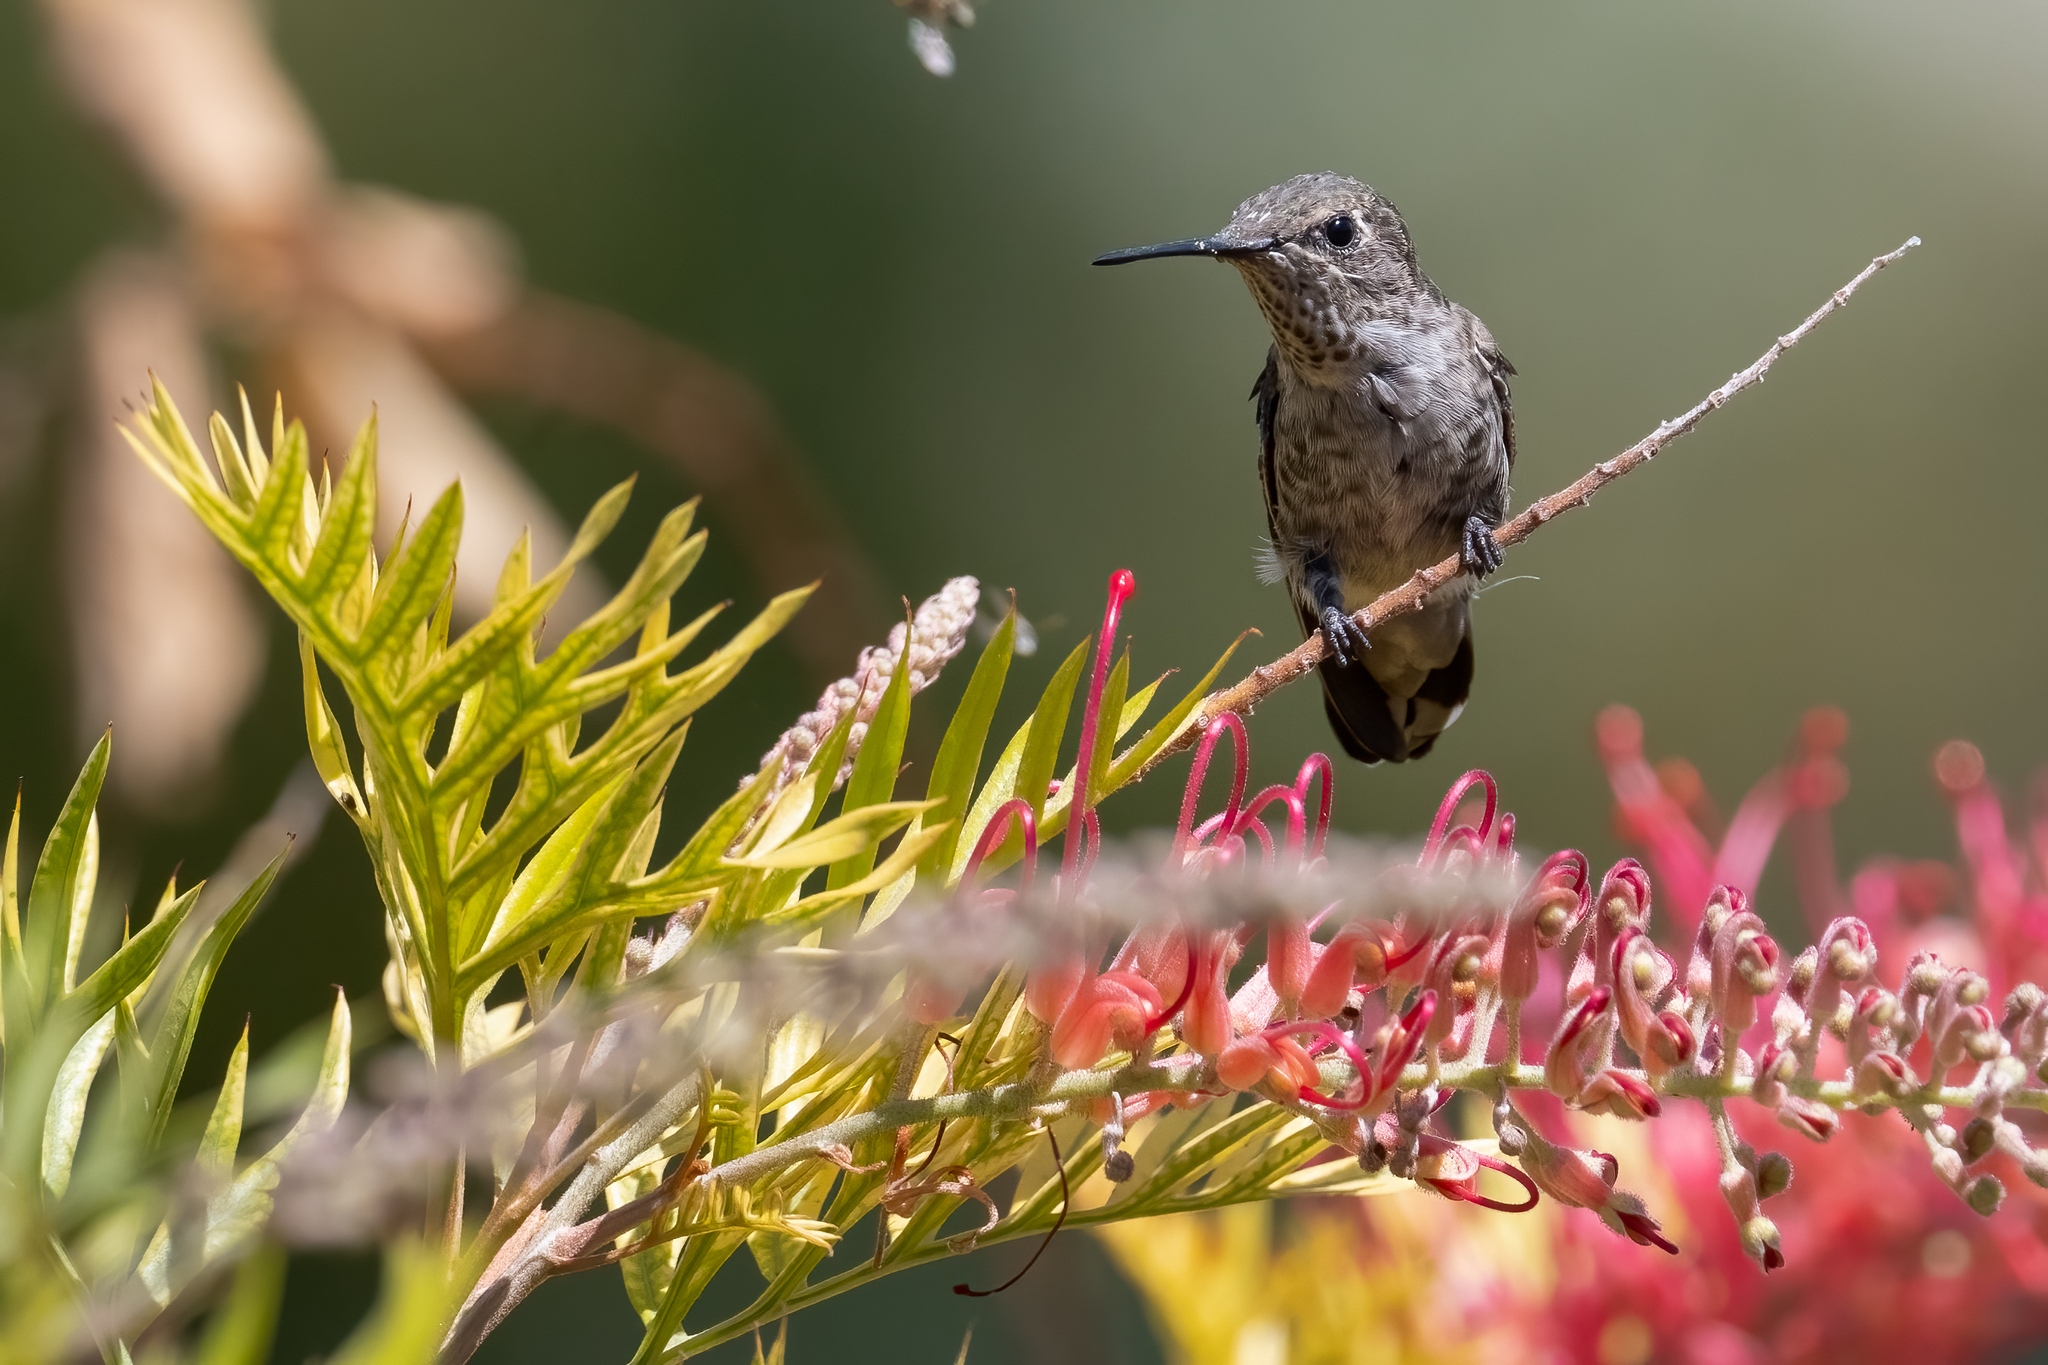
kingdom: Animalia
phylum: Chordata
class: Aves
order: Apodiformes
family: Trochilidae
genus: Calypte
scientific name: Calypte anna
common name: Anna's hummingbird
